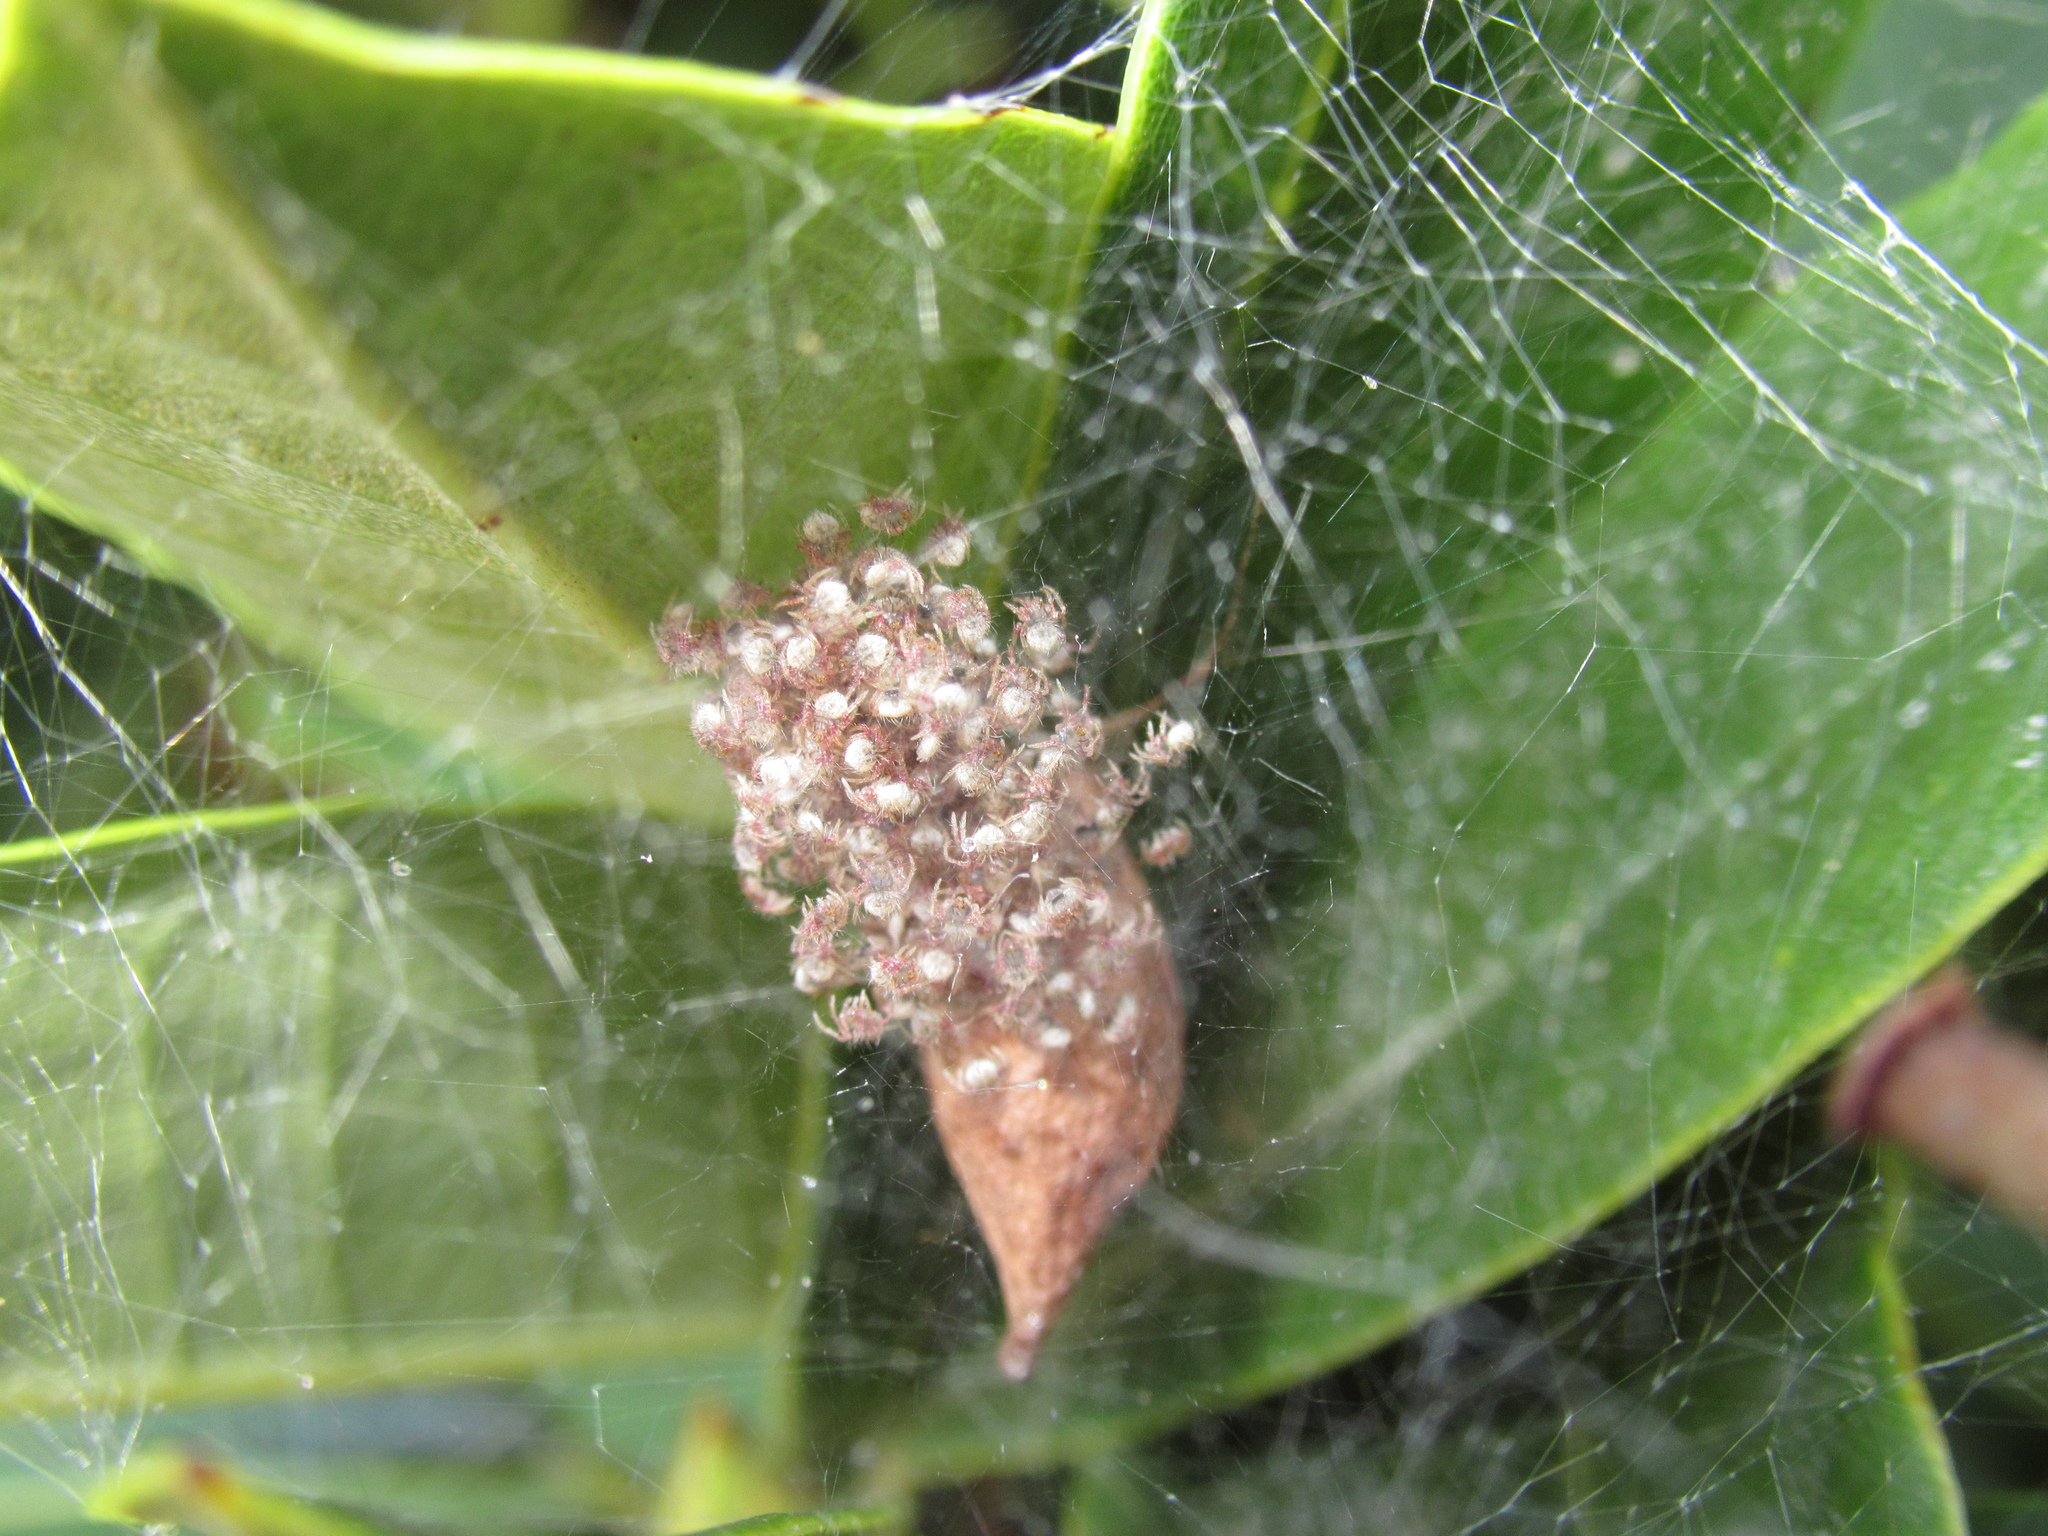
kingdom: Animalia
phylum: Arthropoda
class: Arachnida
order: Araneae
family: Araneidae
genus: Poecilopachys
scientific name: Poecilopachys australasia
